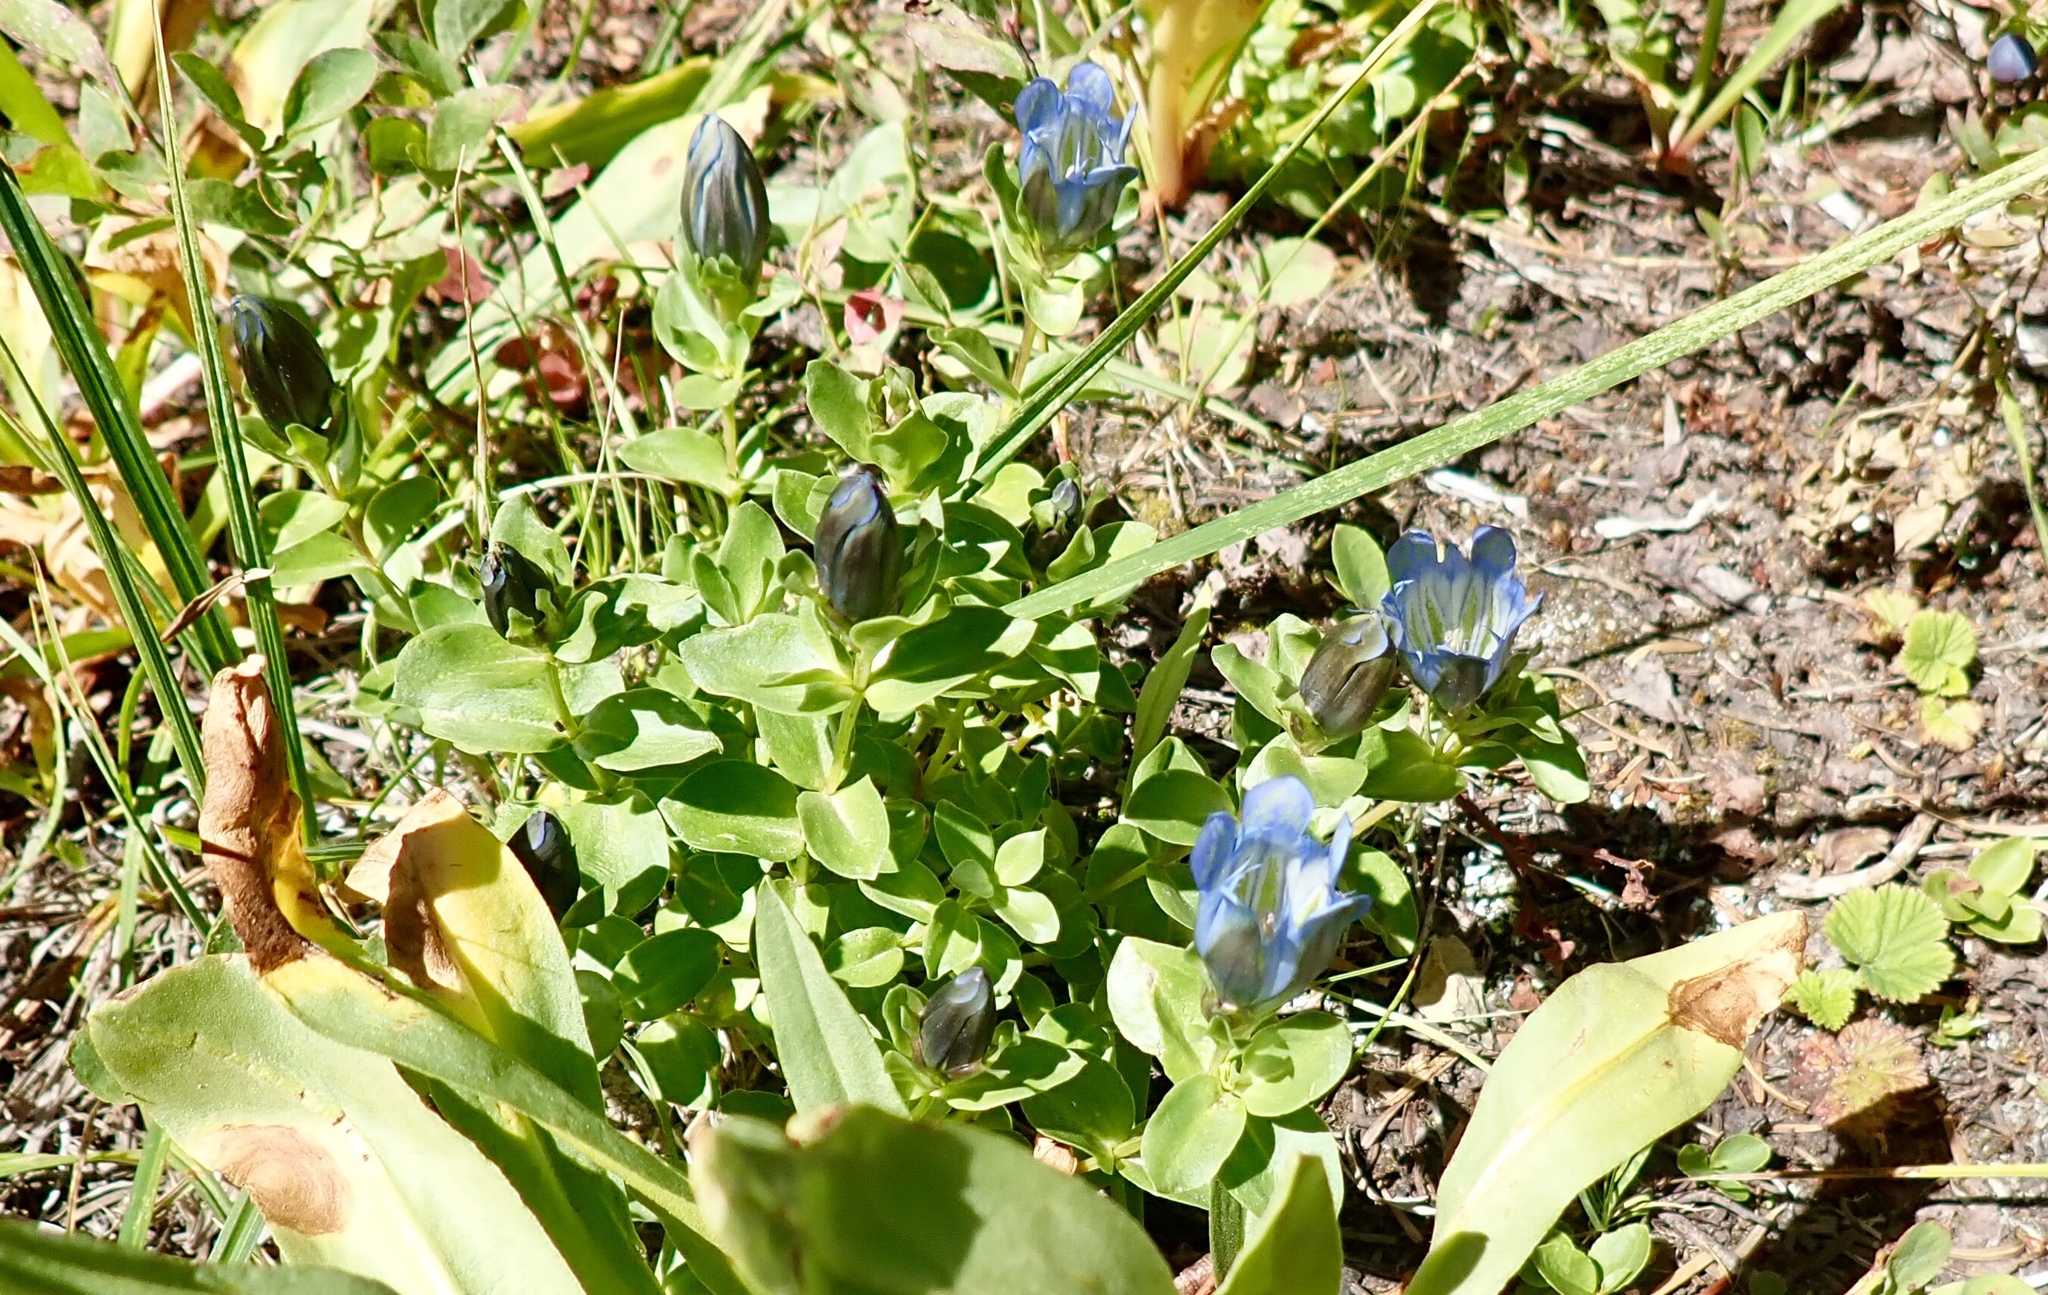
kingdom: Plantae
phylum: Tracheophyta
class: Magnoliopsida
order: Gentianales
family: Gentianaceae
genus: Gentiana
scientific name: Gentiana calycosa
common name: Rainier pleated gentian
